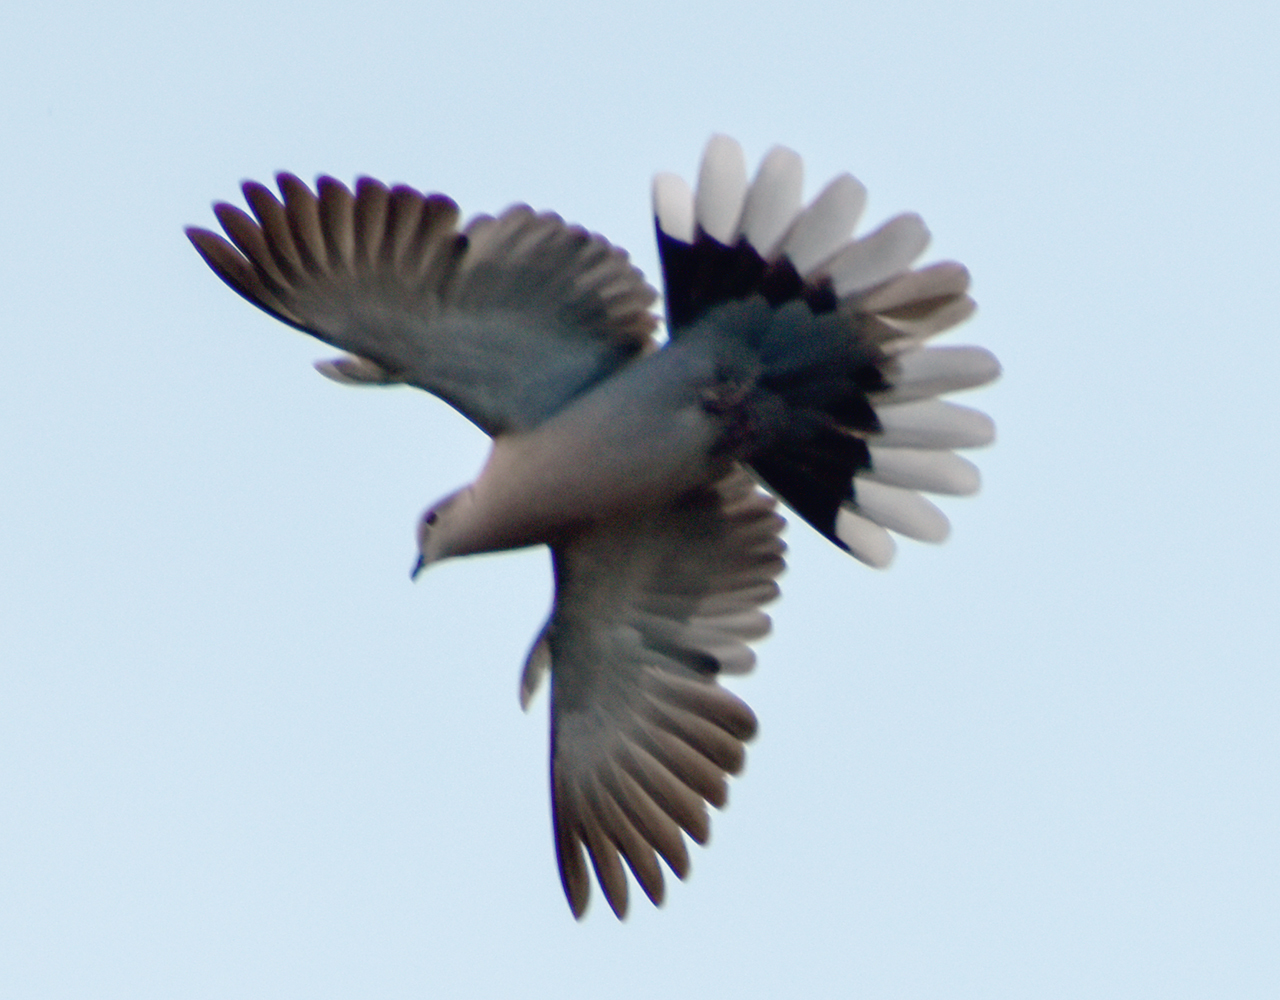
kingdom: Animalia
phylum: Chordata
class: Aves
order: Columbiformes
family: Columbidae
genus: Streptopelia
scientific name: Streptopelia decaocto
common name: Eurasian collared dove
